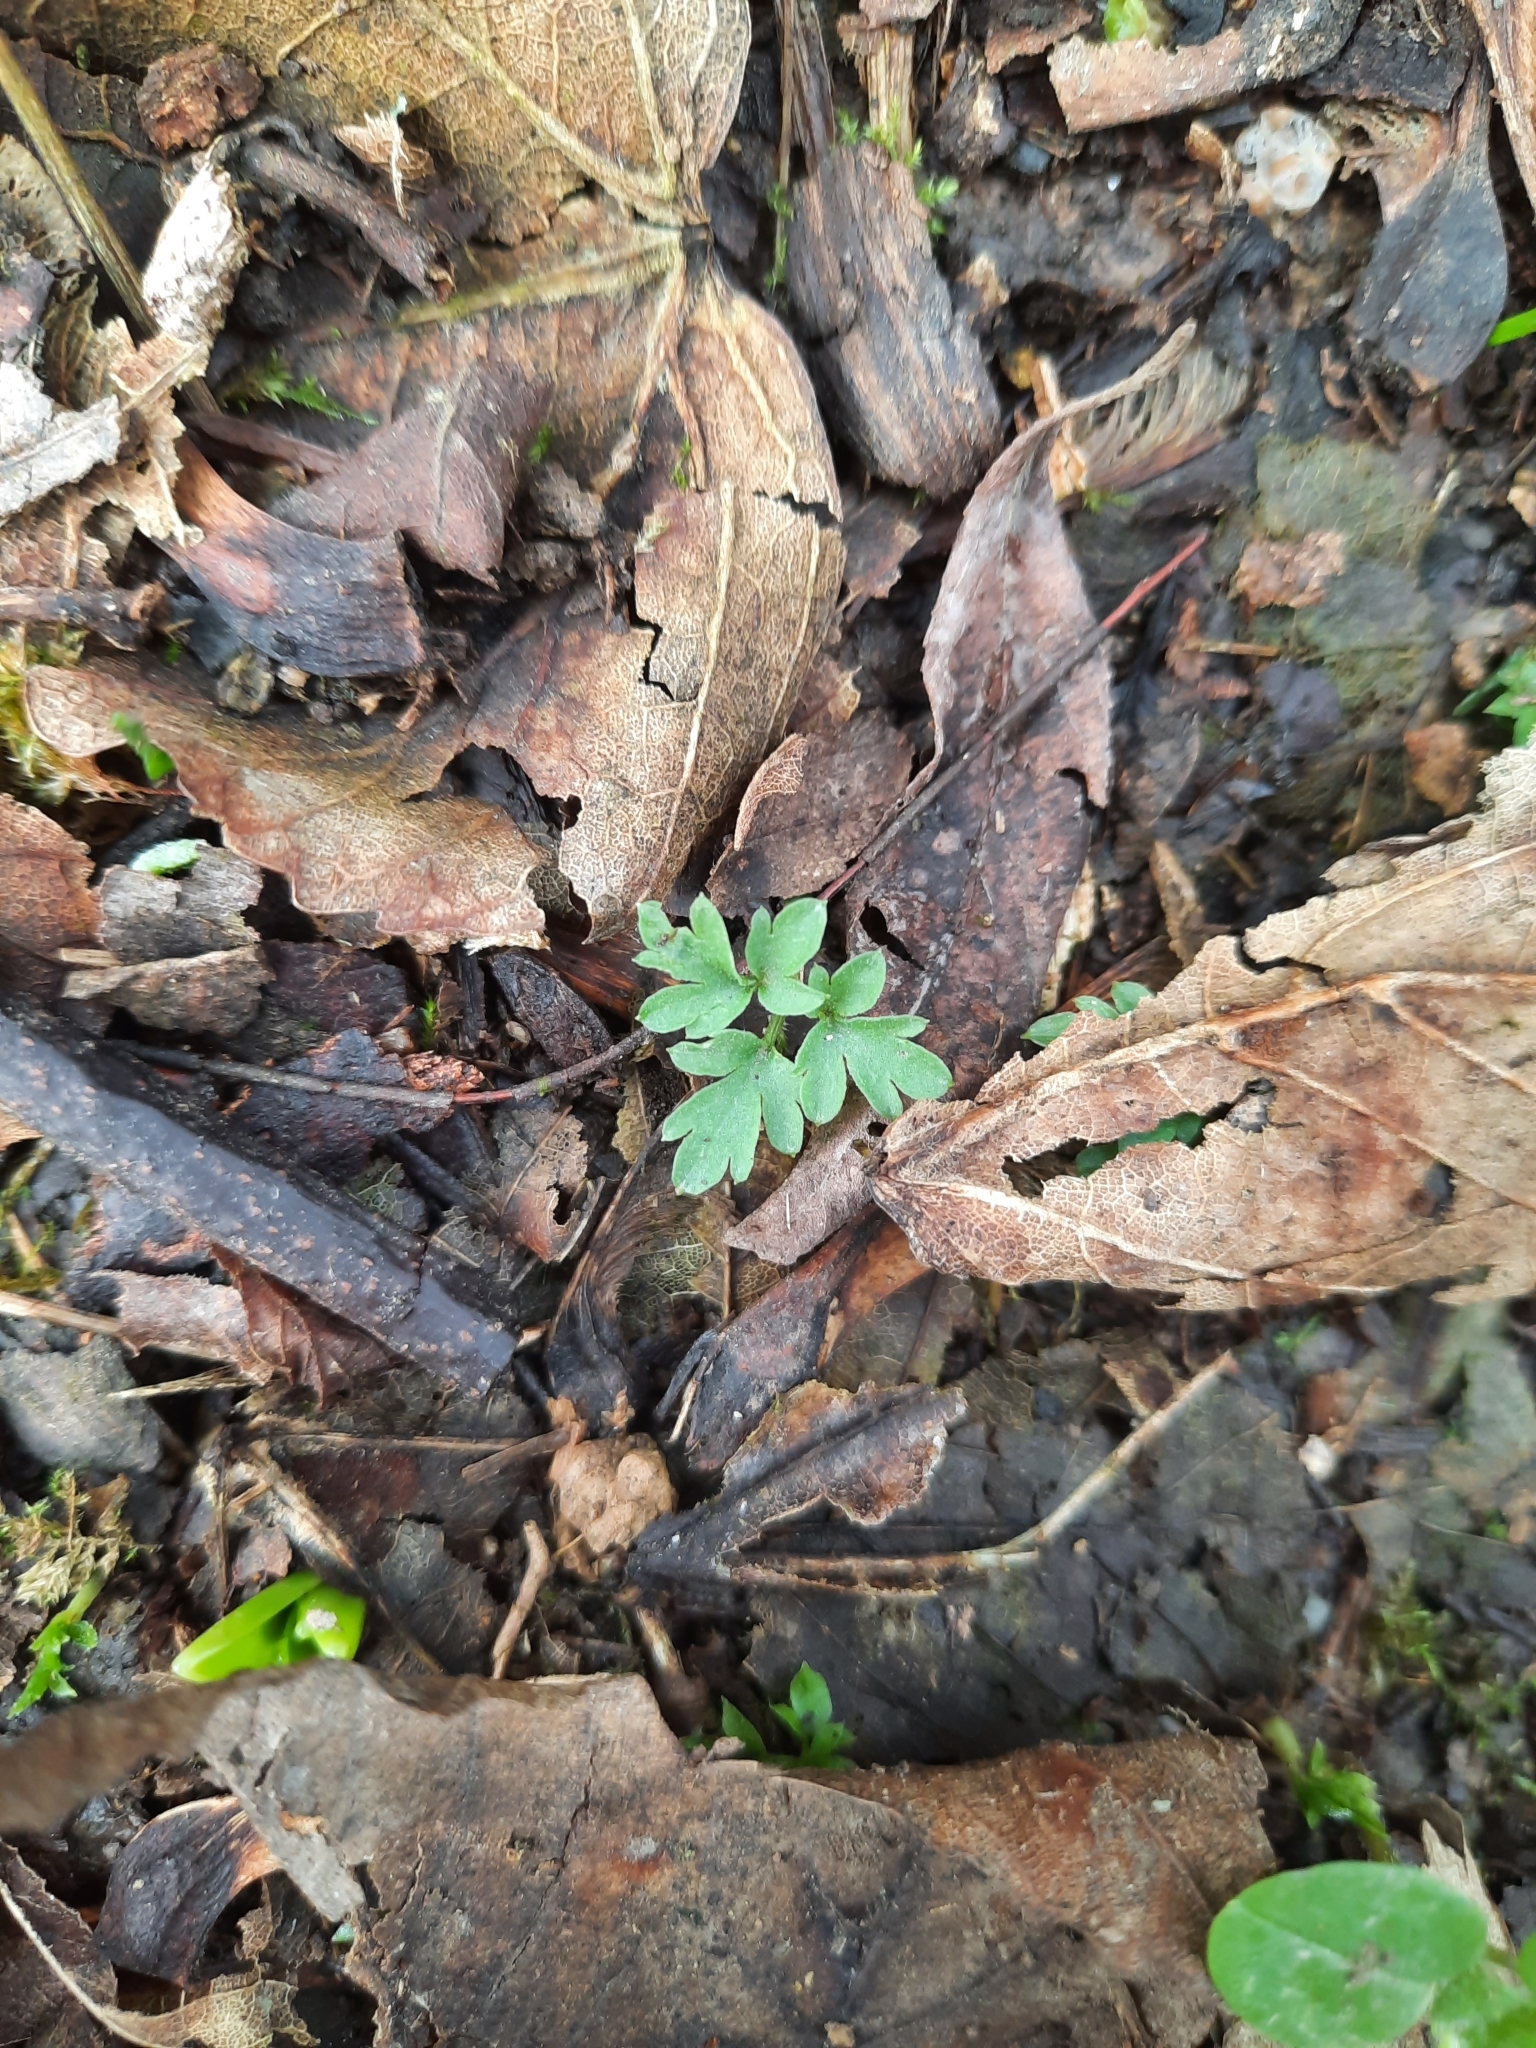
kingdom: Plantae
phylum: Tracheophyta
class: Magnoliopsida
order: Dipsacales
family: Viburnaceae
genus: Adoxa
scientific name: Adoxa moschatellina
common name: Moschatel
